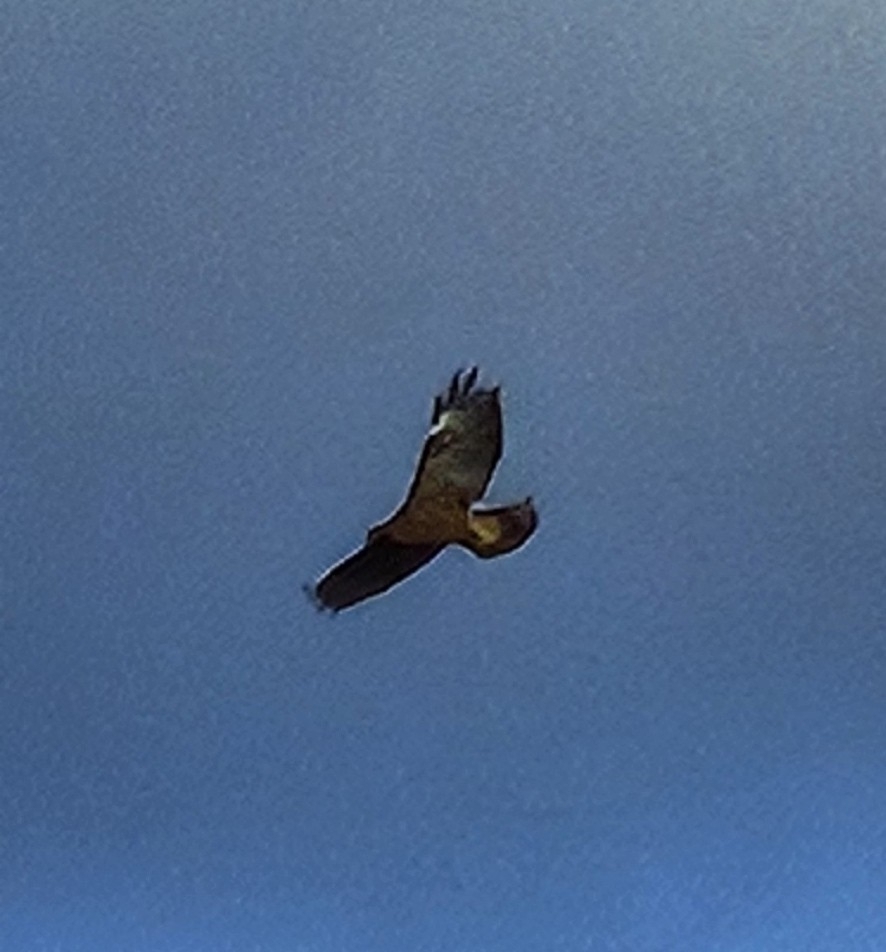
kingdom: Animalia
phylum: Chordata
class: Aves
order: Accipitriformes
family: Accipitridae
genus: Buteo
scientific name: Buteo jamaicensis
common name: Red-tailed hawk
